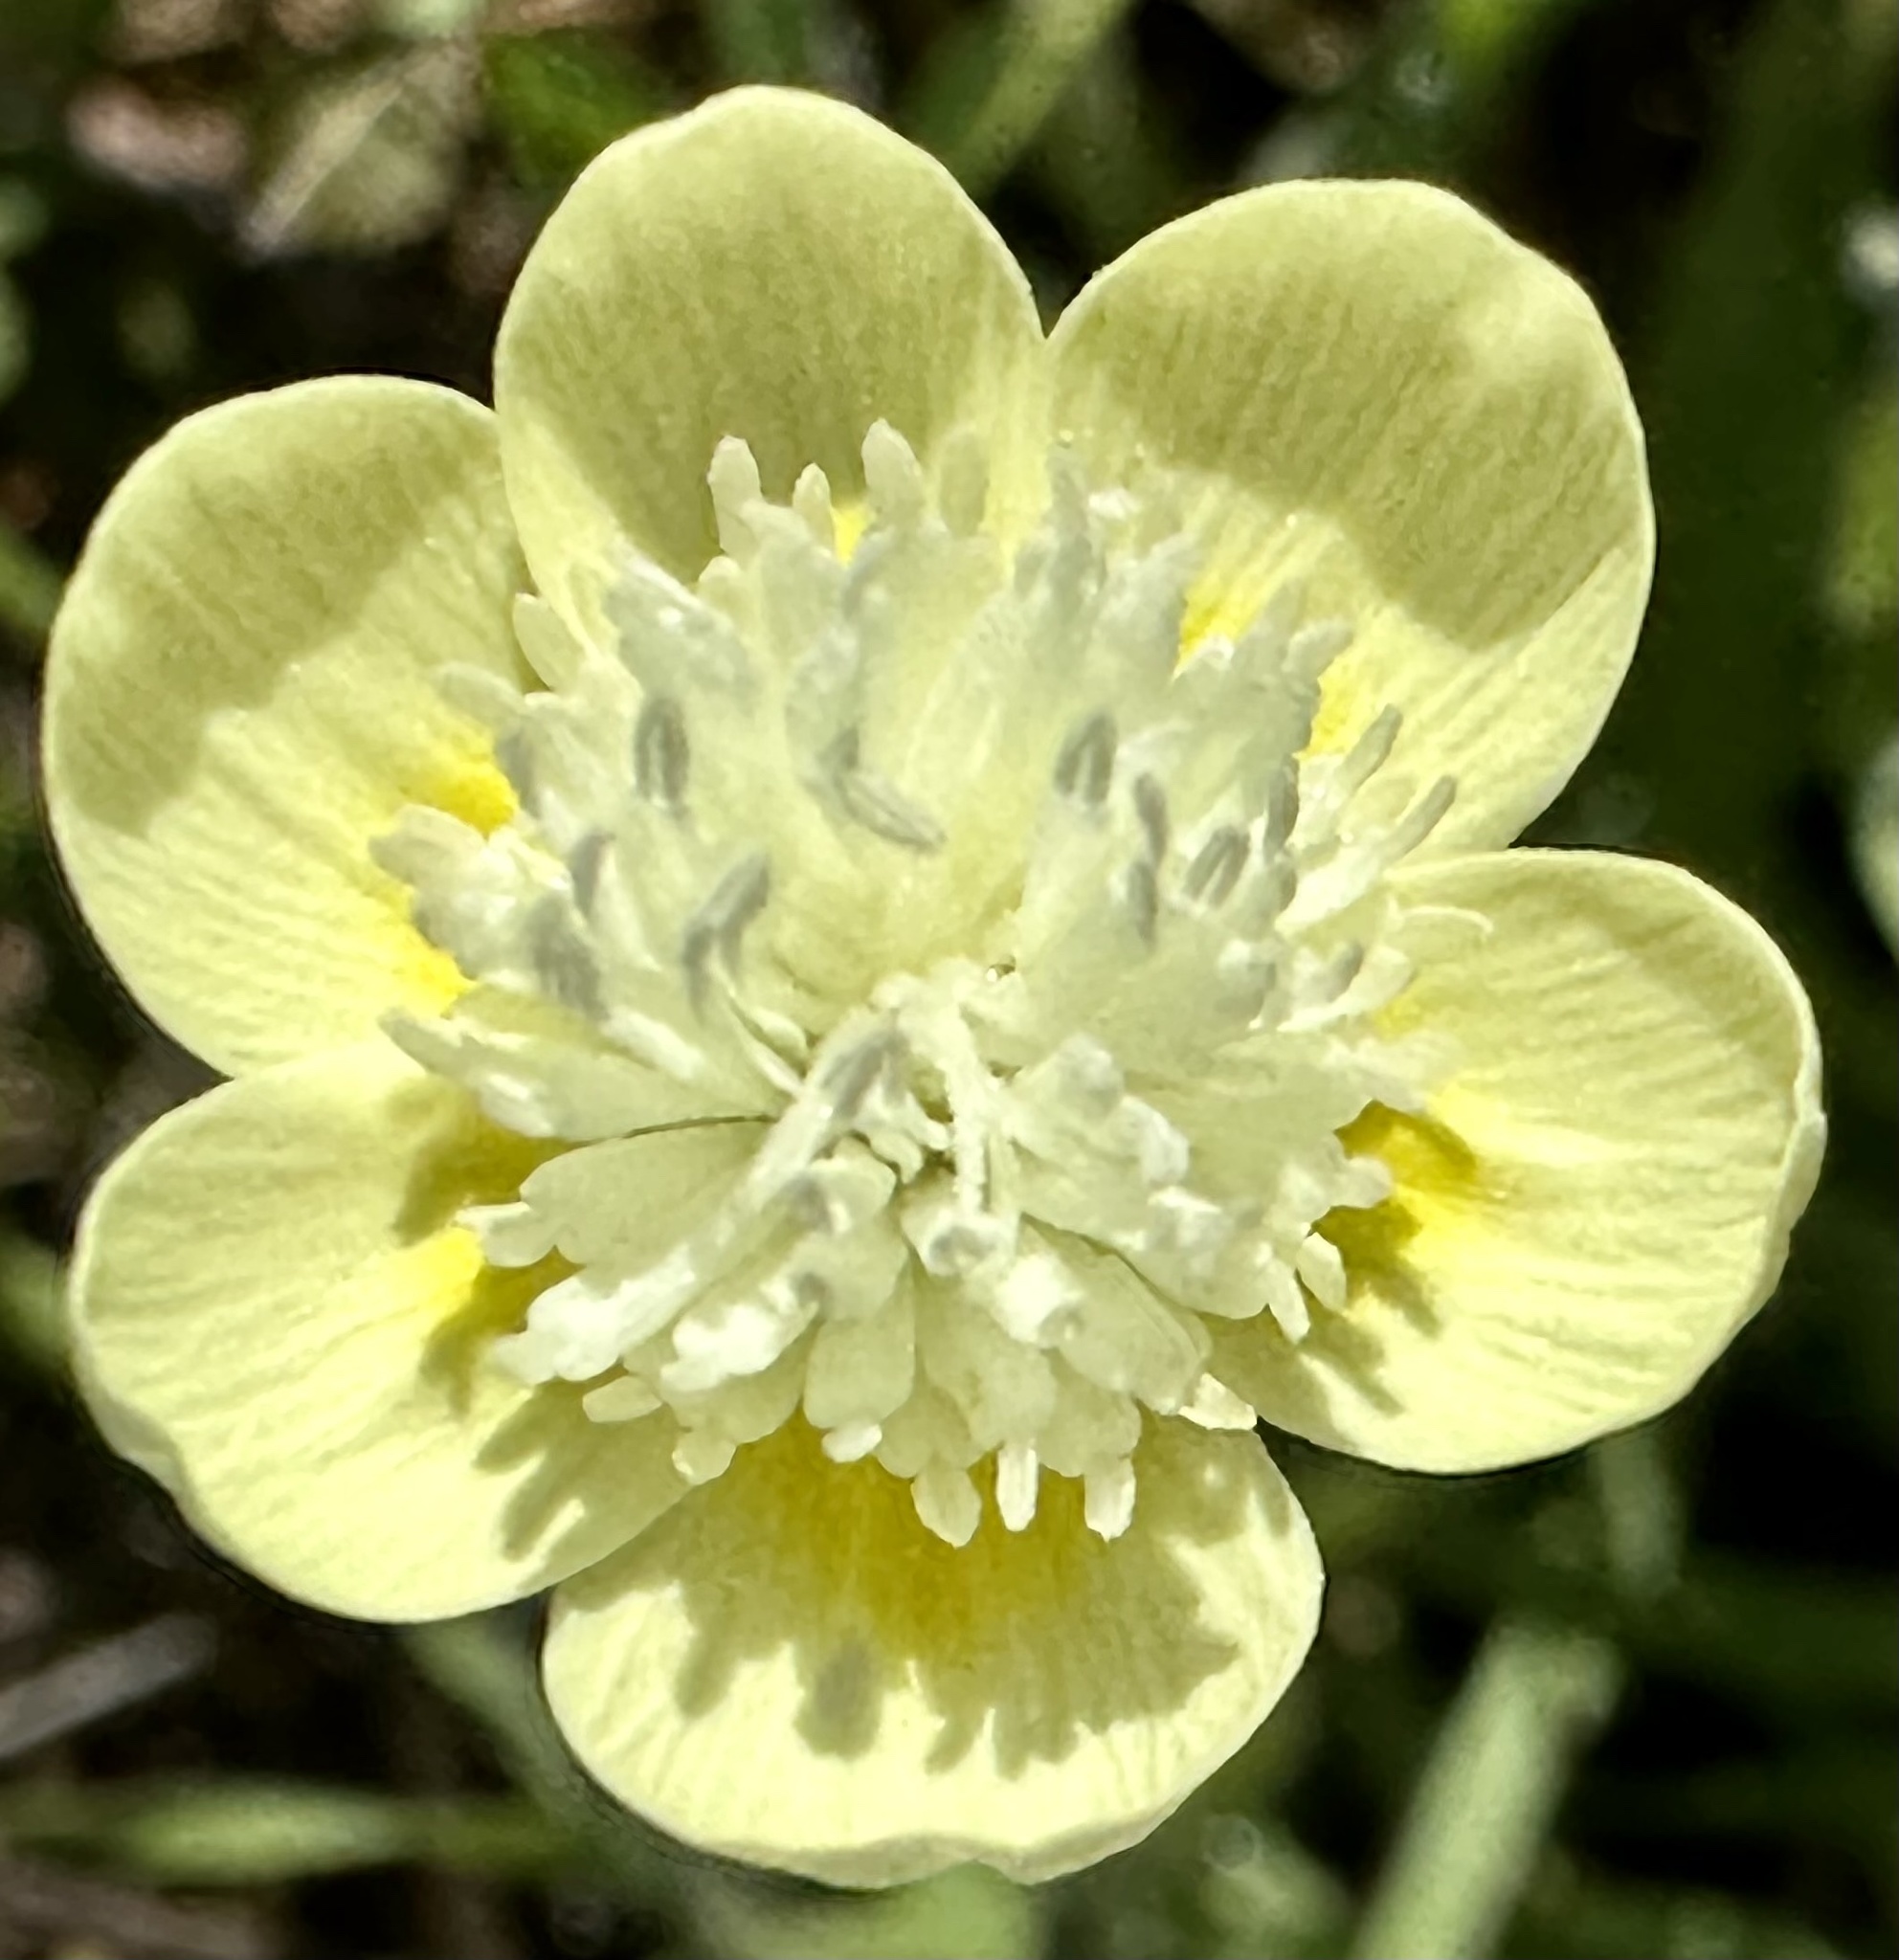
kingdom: Plantae
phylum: Tracheophyta
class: Magnoliopsida
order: Ranunculales
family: Papaveraceae
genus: Platystemon
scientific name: Platystemon californicus
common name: Cream-cups
